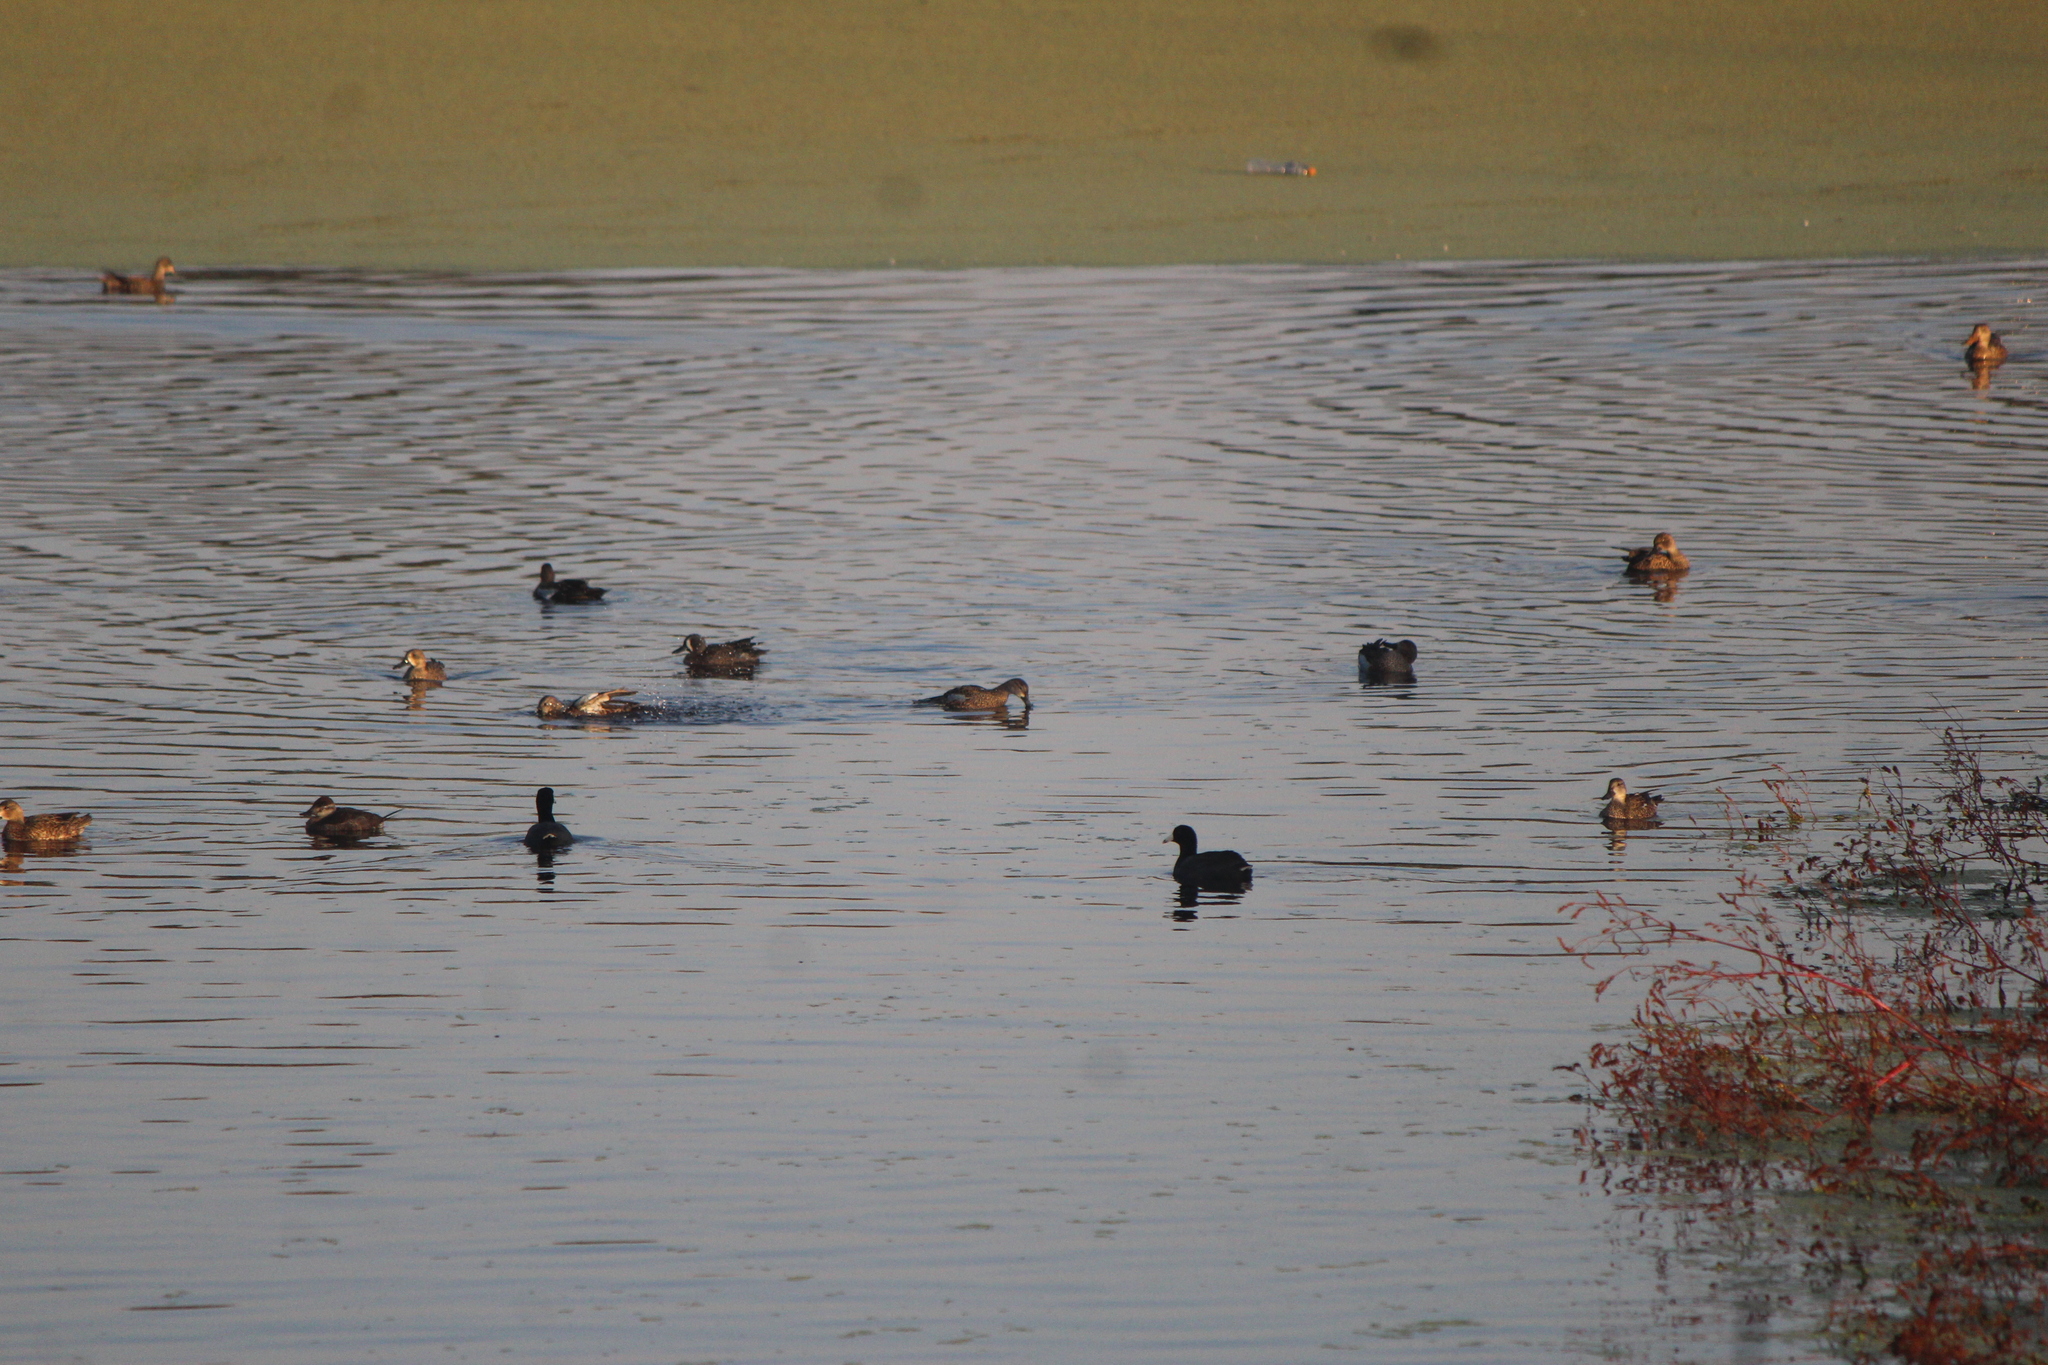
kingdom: Animalia
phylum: Chordata
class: Aves
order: Anseriformes
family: Anatidae
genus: Oxyura
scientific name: Oxyura jamaicensis
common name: Ruddy duck
